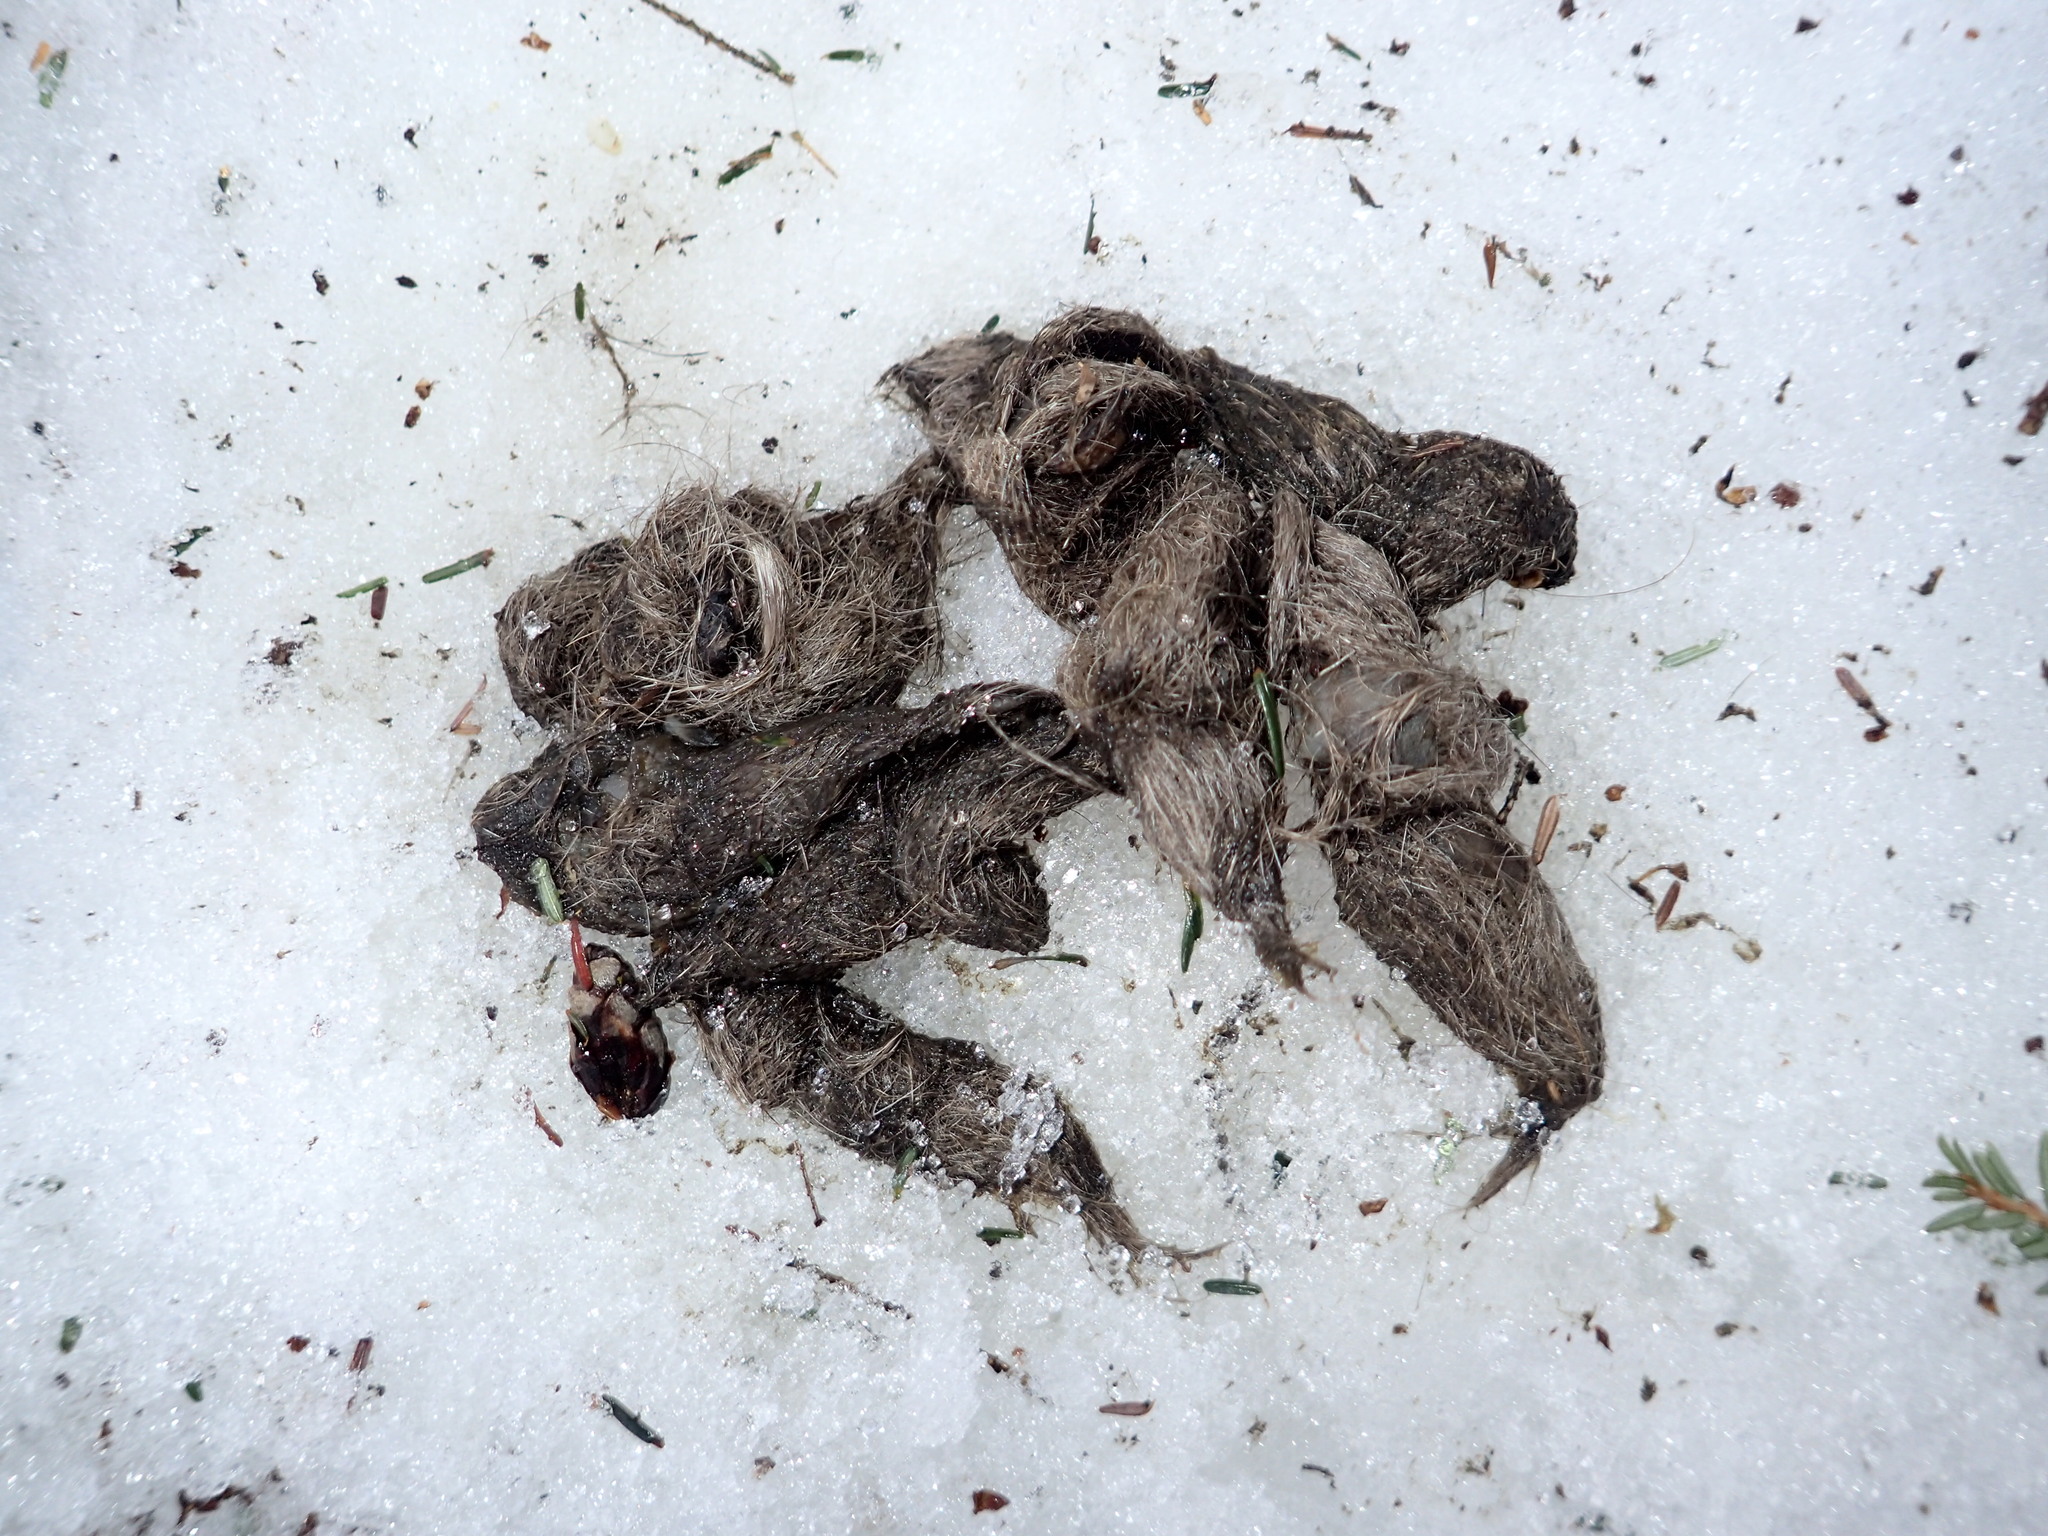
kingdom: Animalia
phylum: Chordata
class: Mammalia
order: Carnivora
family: Canidae
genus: Canis
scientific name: Canis latrans
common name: Coyote
